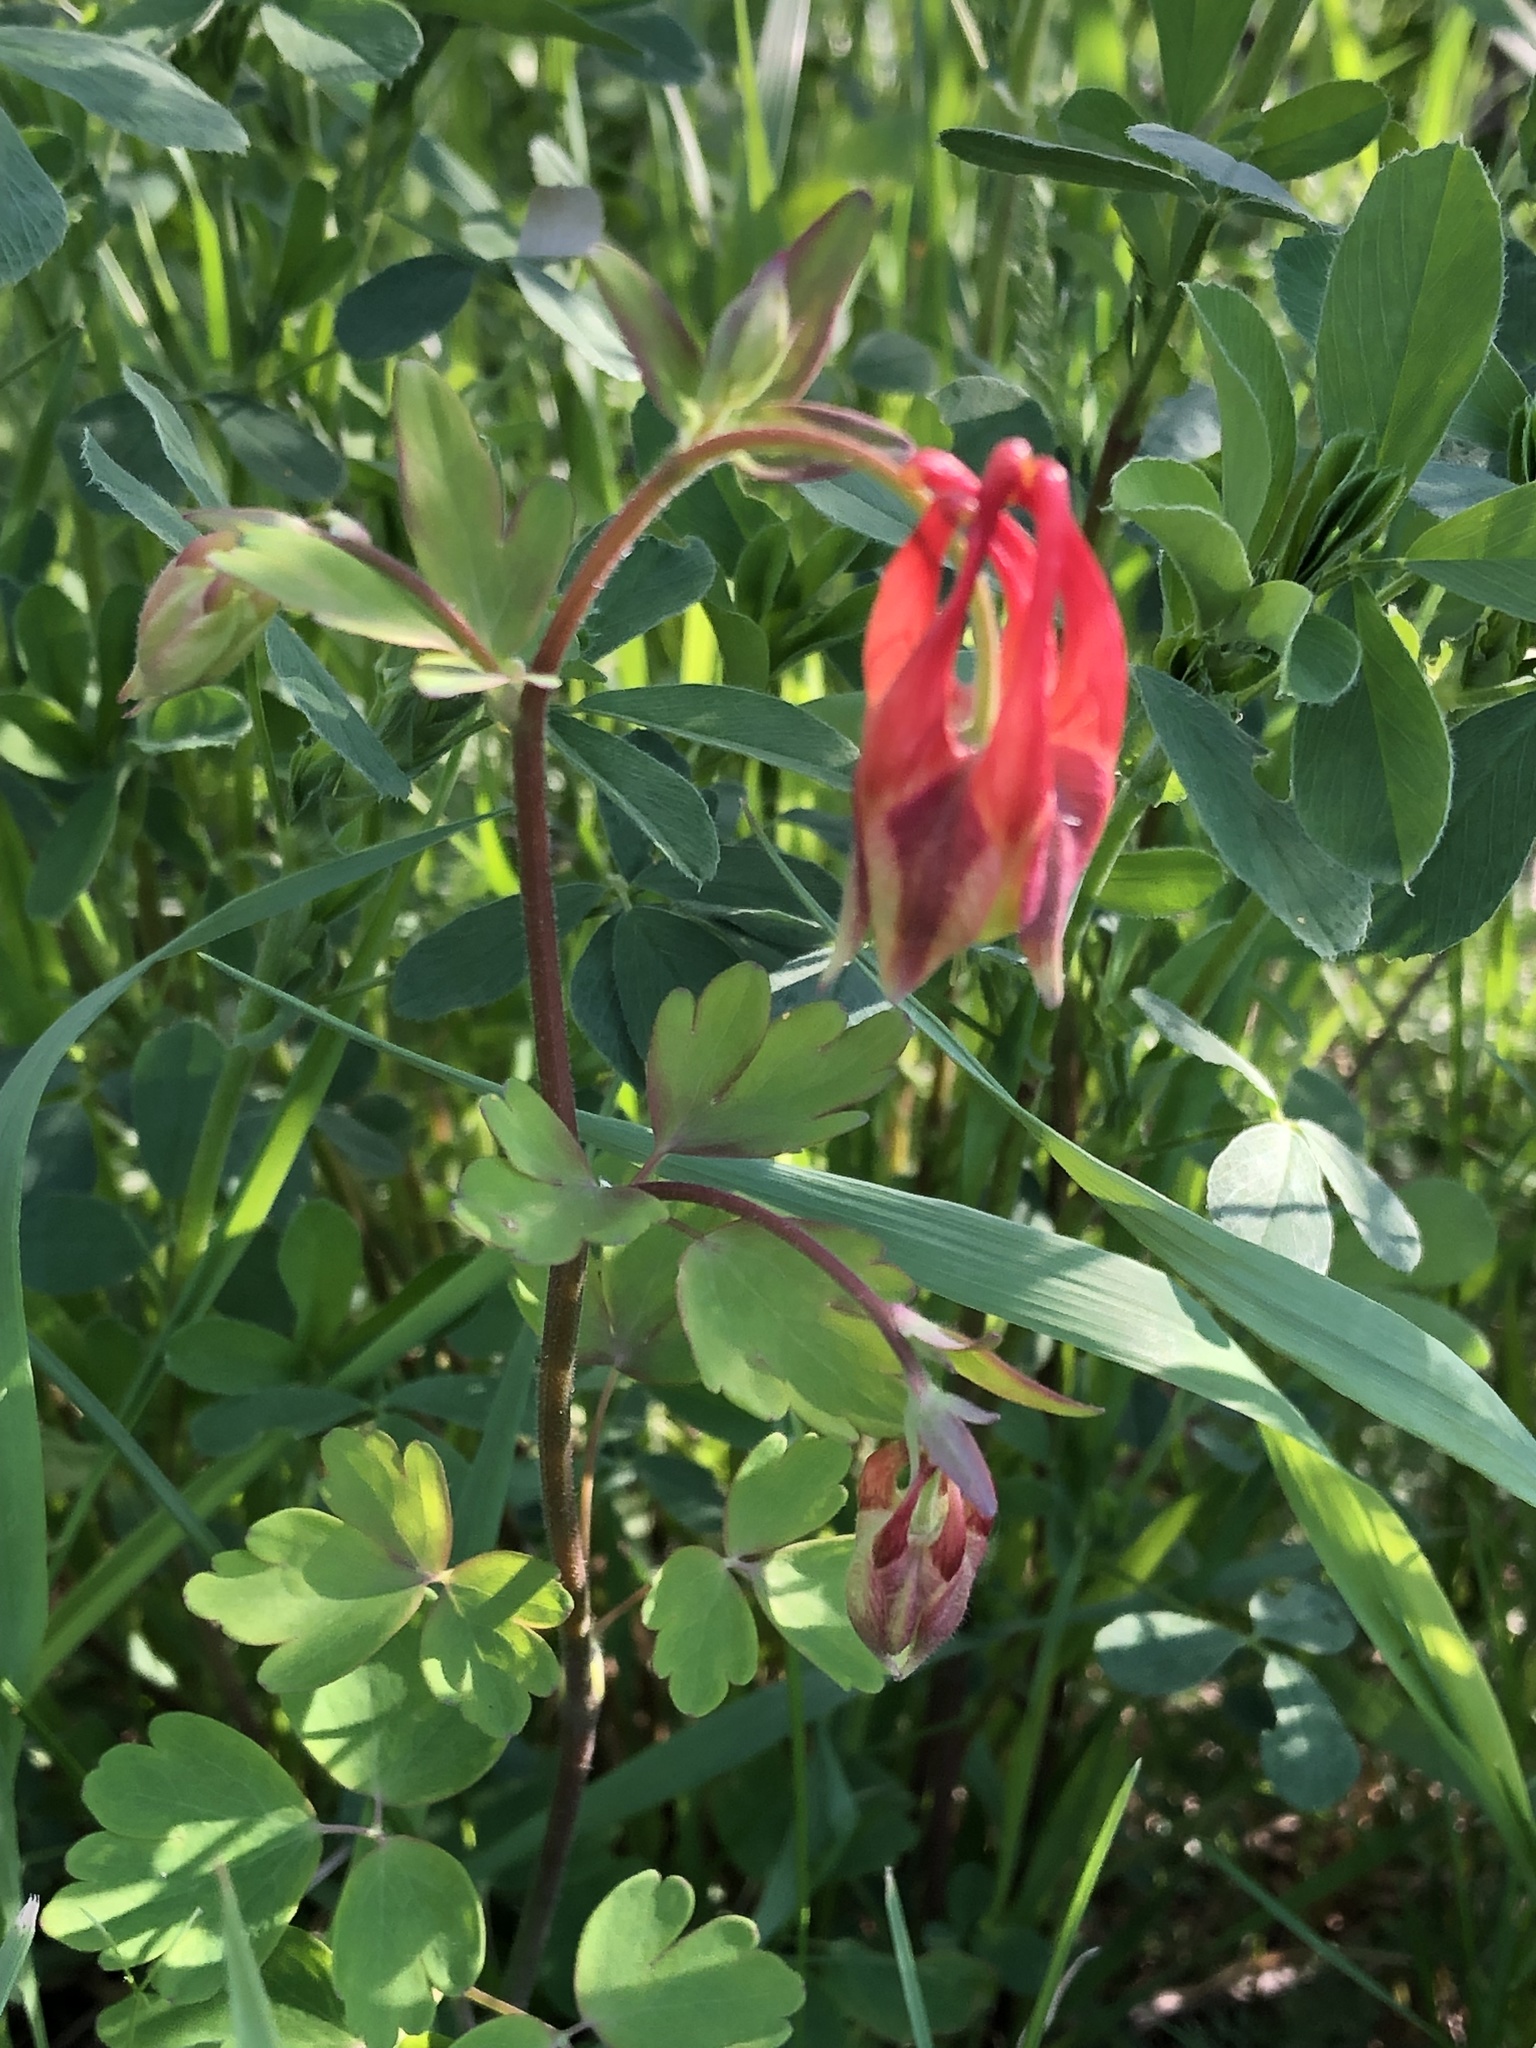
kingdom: Plantae
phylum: Tracheophyta
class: Magnoliopsida
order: Ranunculales
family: Ranunculaceae
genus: Aquilegia
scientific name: Aquilegia canadensis
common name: American columbine
